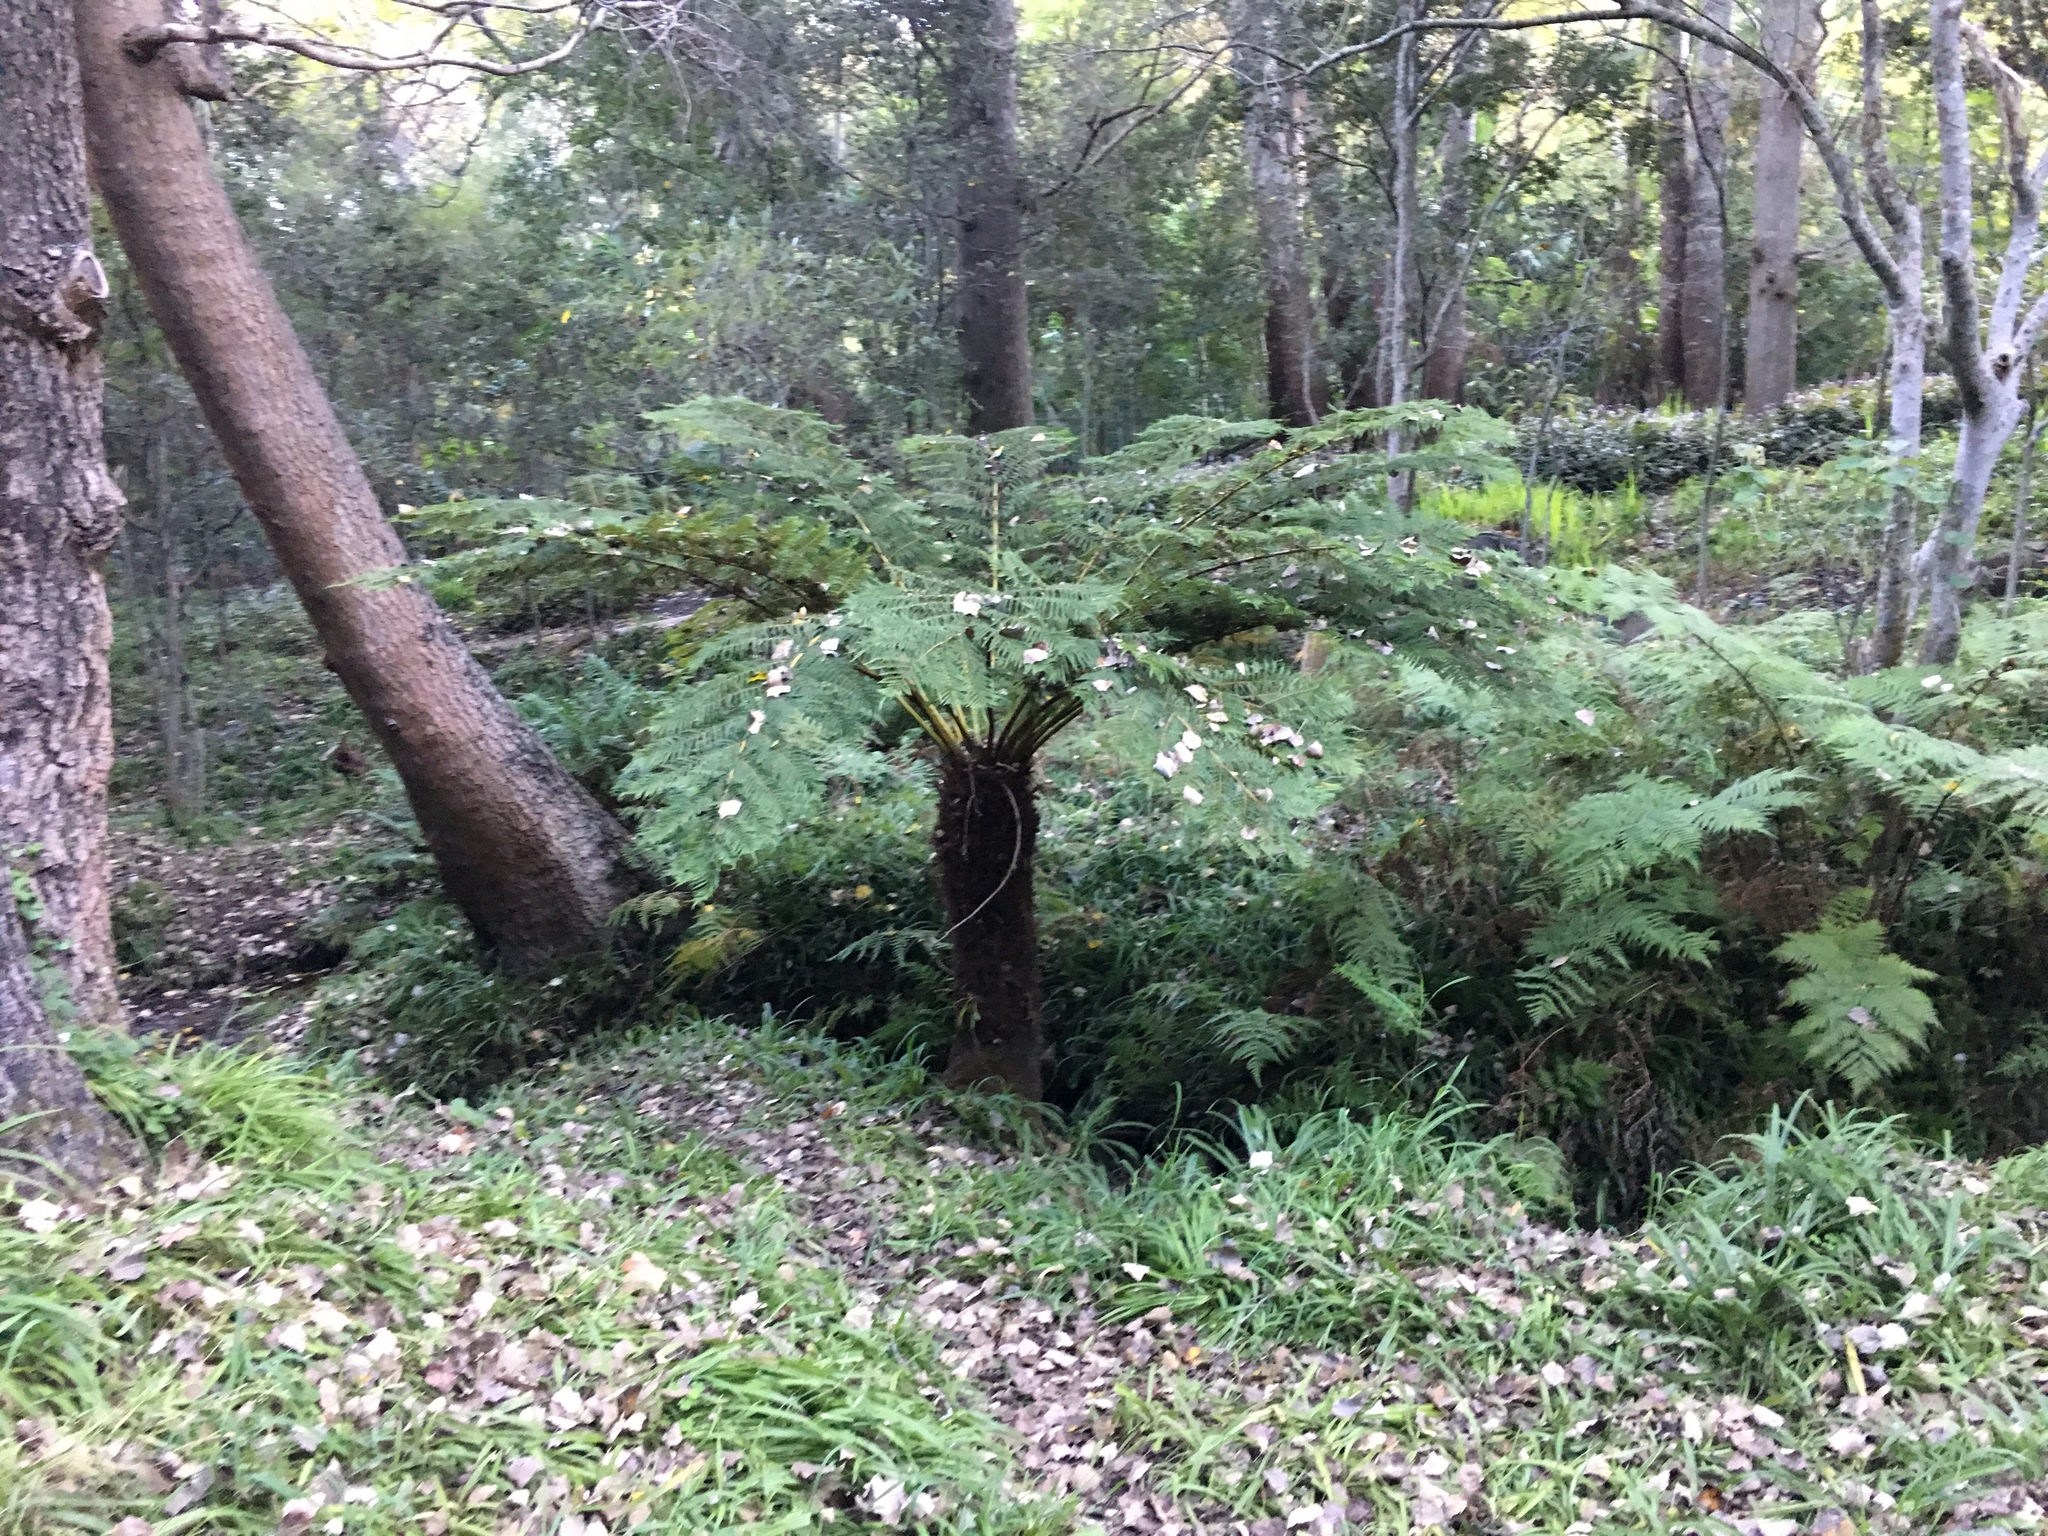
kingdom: Plantae
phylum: Tracheophyta
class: Polypodiopsida
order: Cyatheales
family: Cyatheaceae
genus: Alsophila
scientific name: Alsophila dregei
